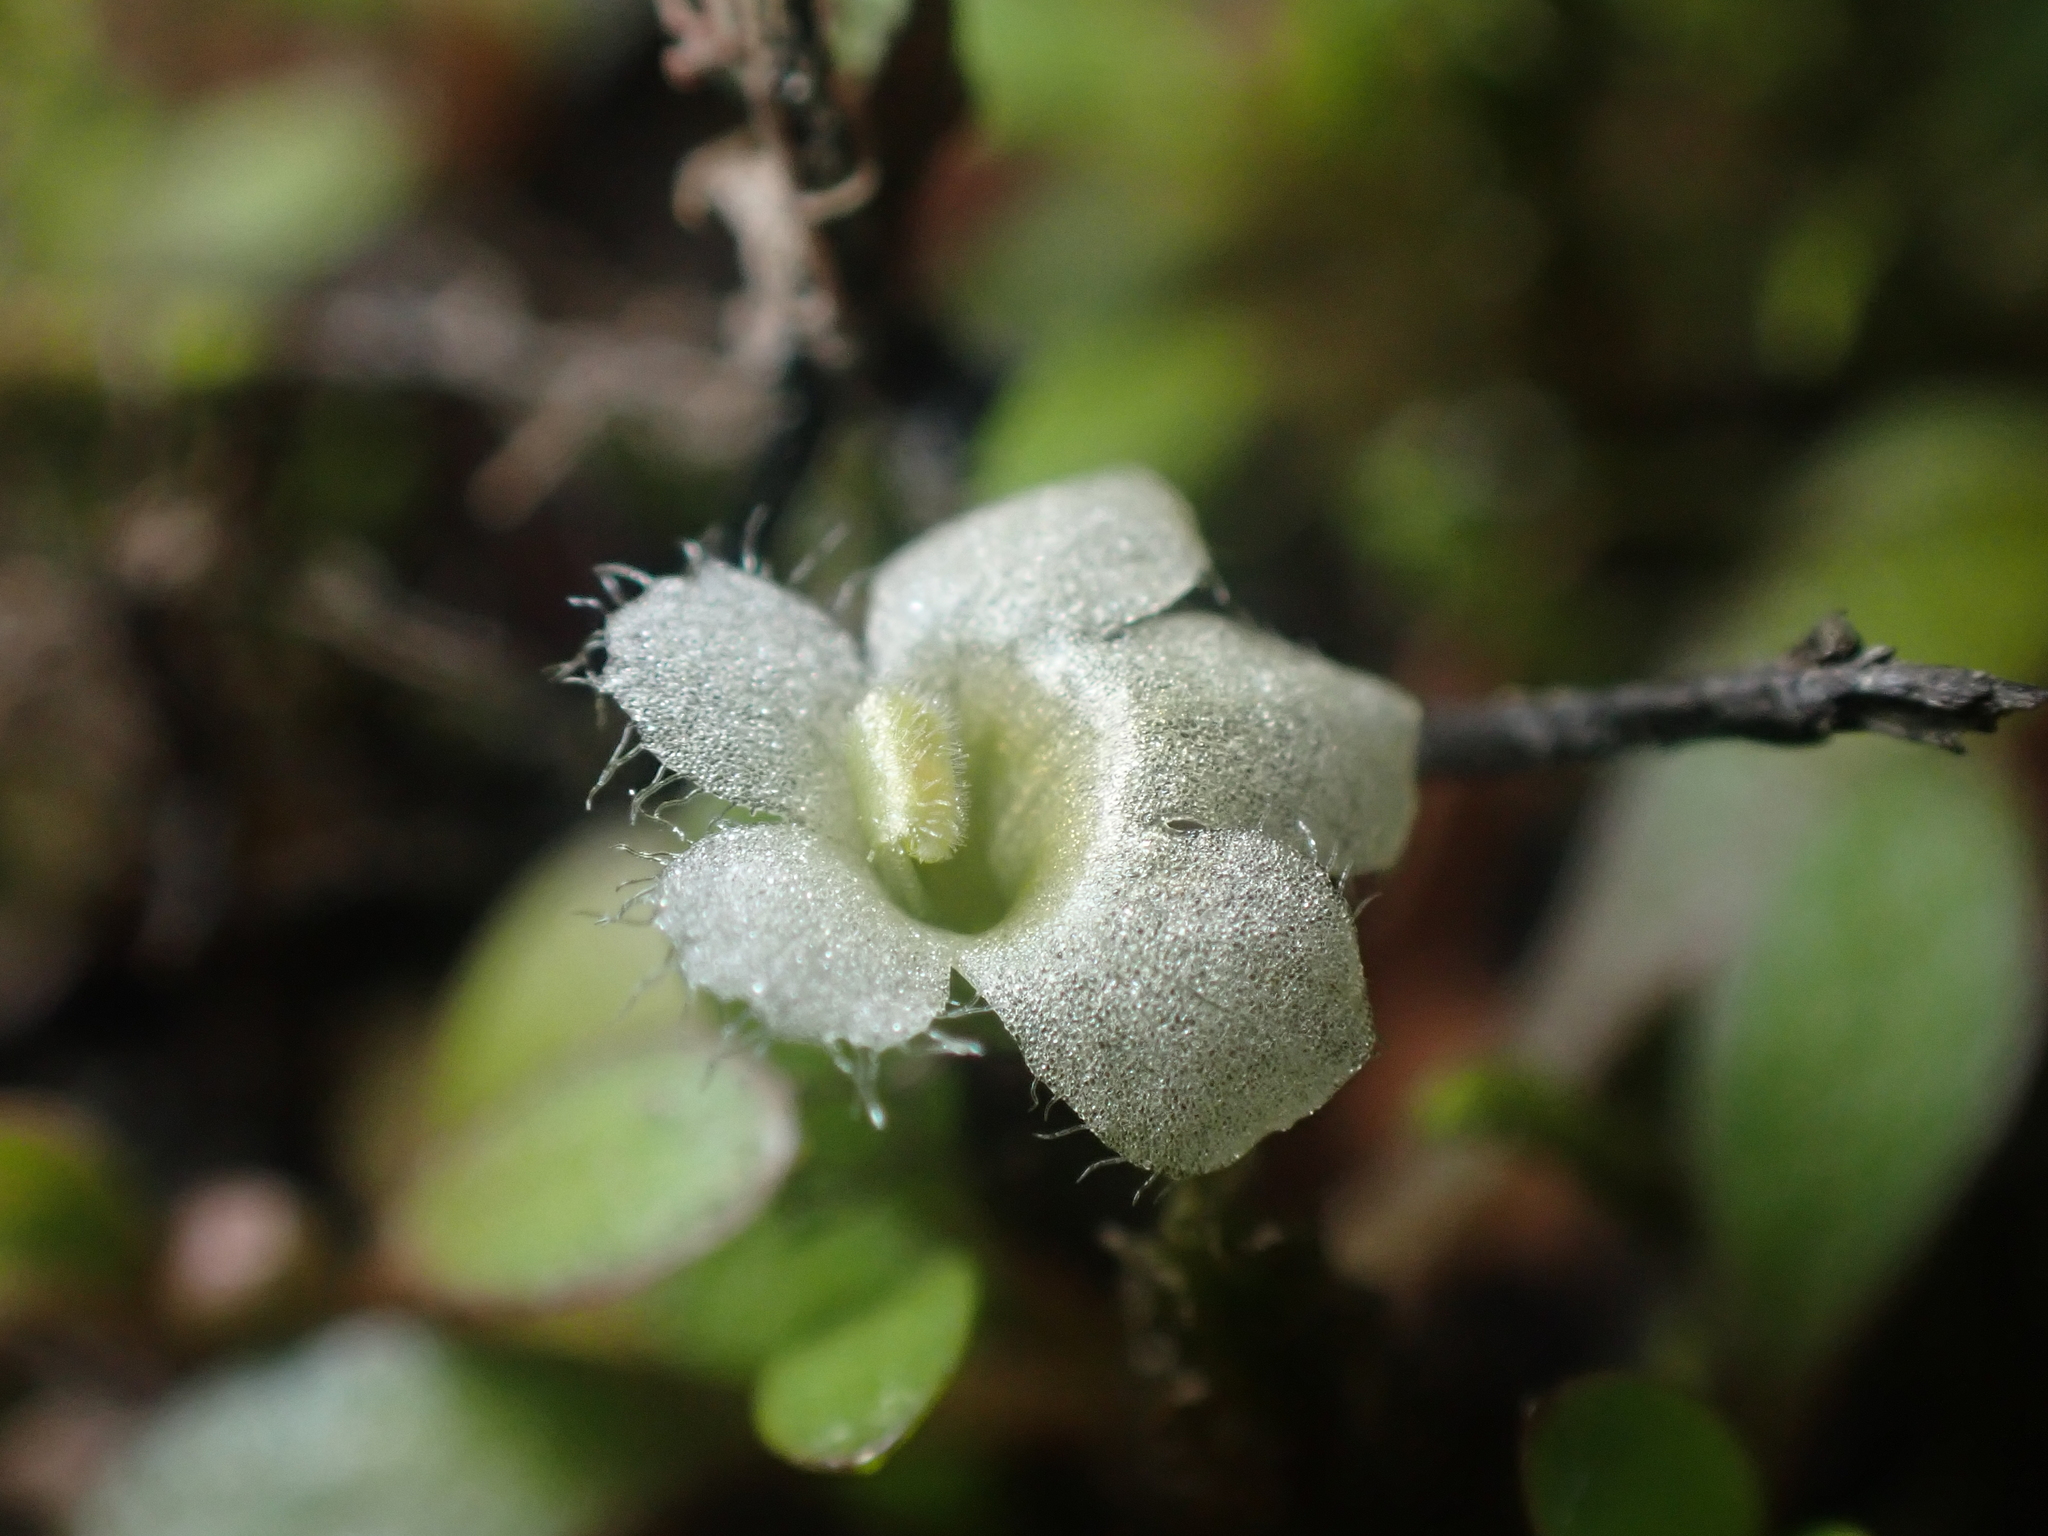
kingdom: Plantae
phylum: Tracheophyta
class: Magnoliopsida
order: Lamiales
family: Phrymaceae
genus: Glossostigma
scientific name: Glossostigma elatinoides
